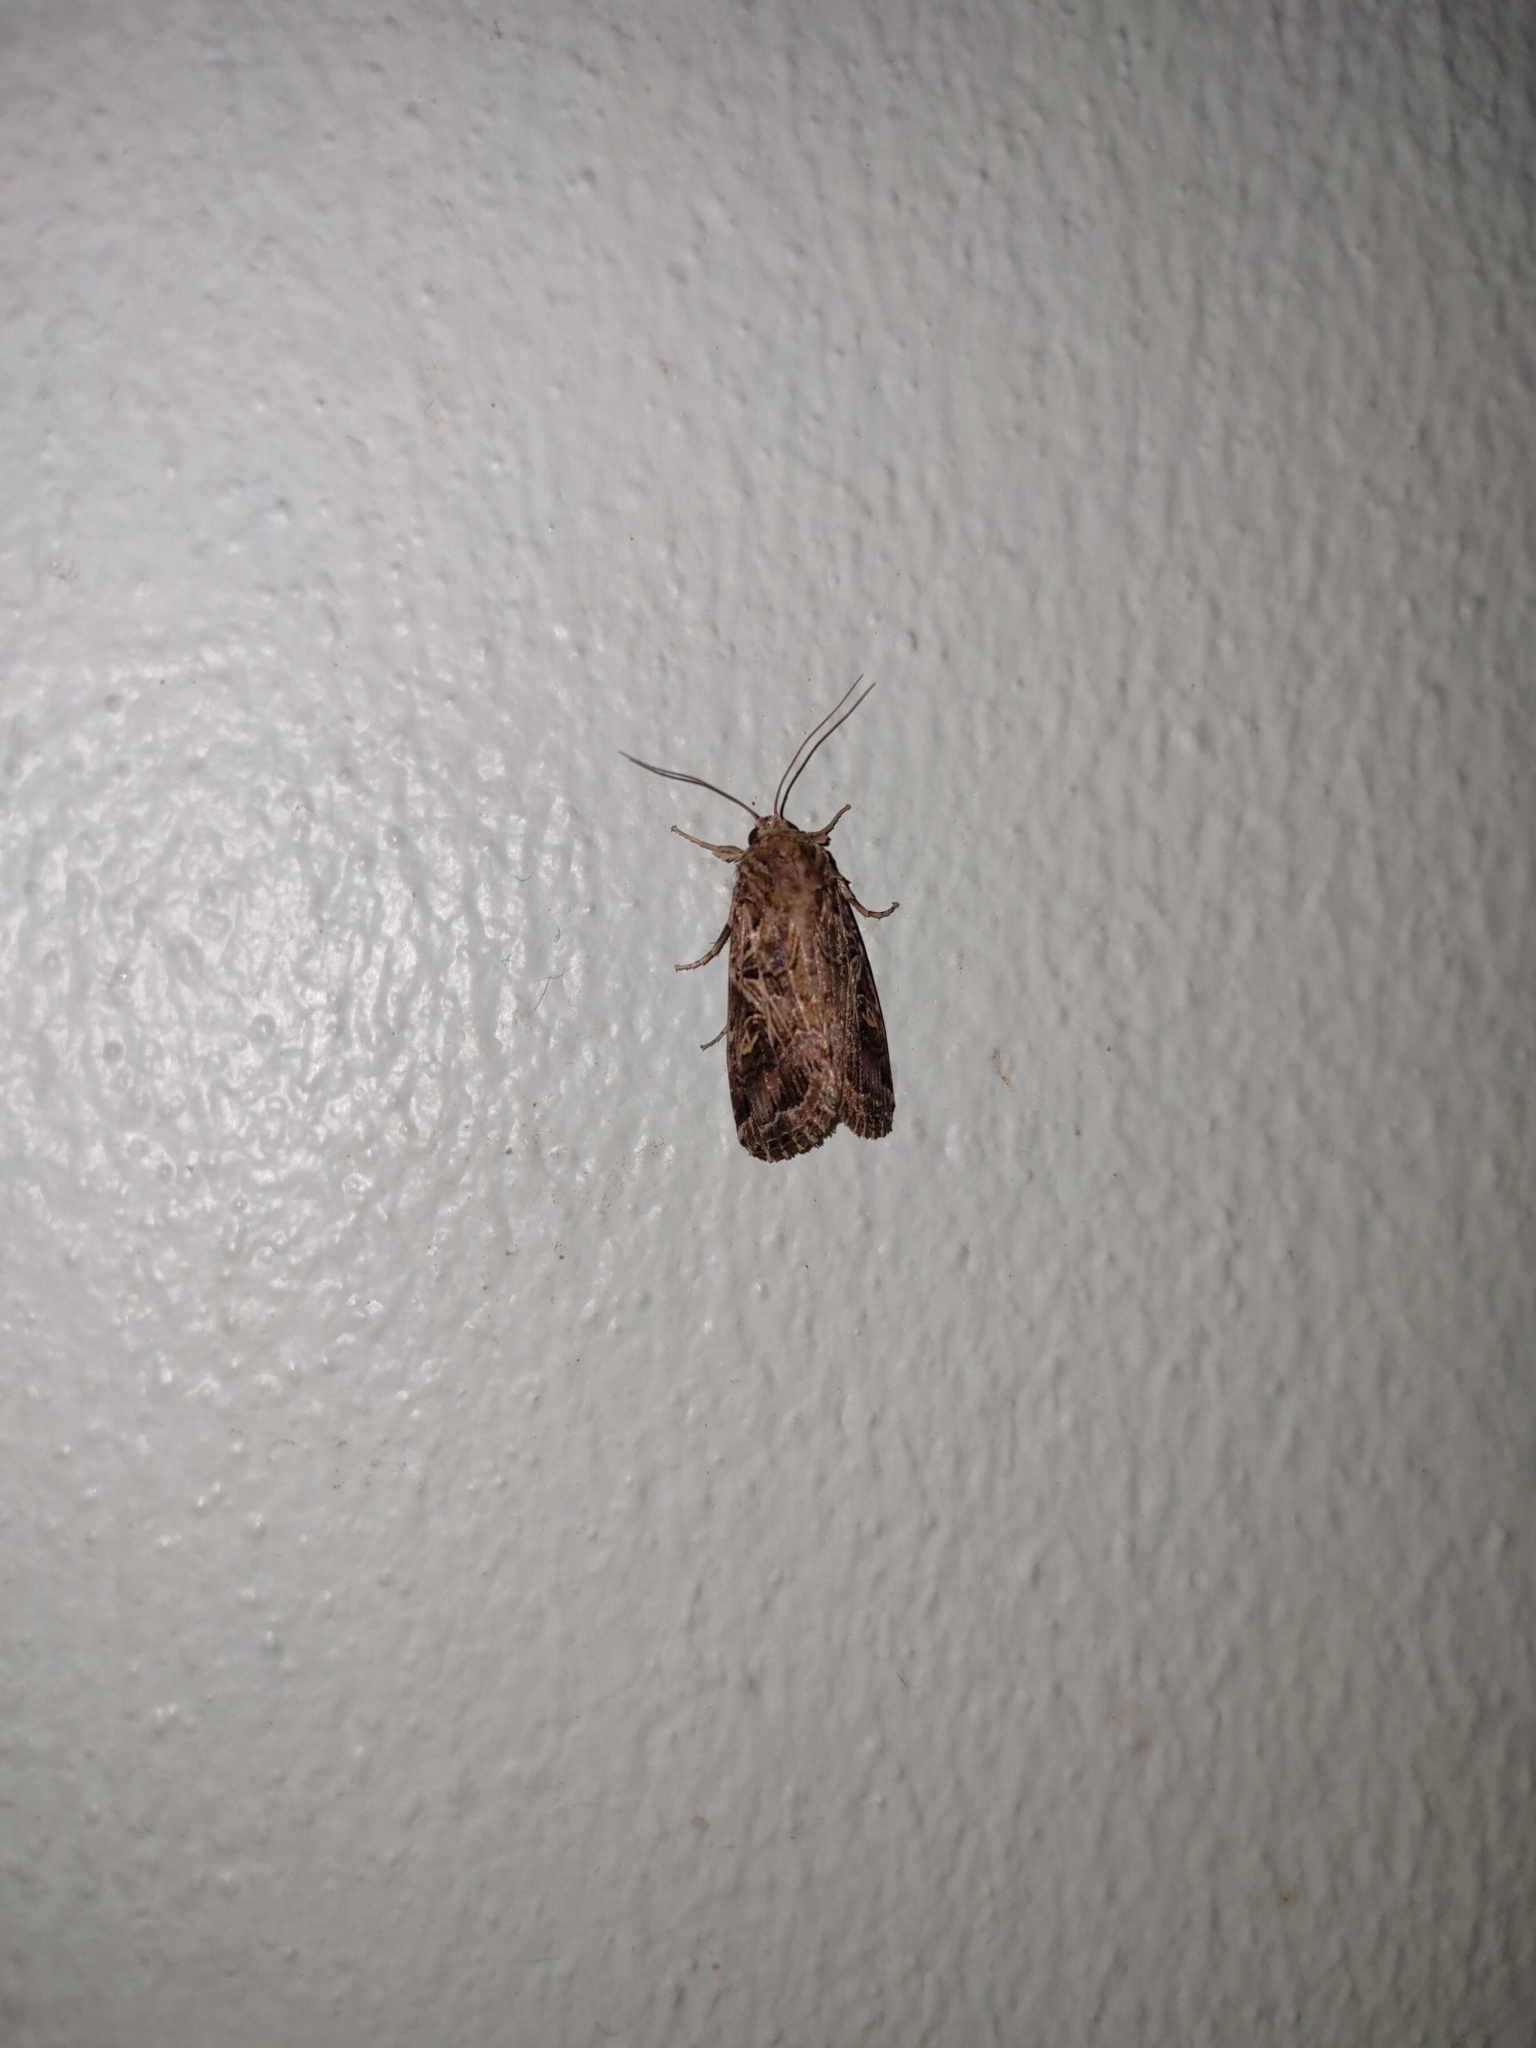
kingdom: Animalia
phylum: Arthropoda
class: Insecta
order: Lepidoptera
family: Noctuidae
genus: Spodoptera
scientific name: Spodoptera litura
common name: Asian cotton leafworm
